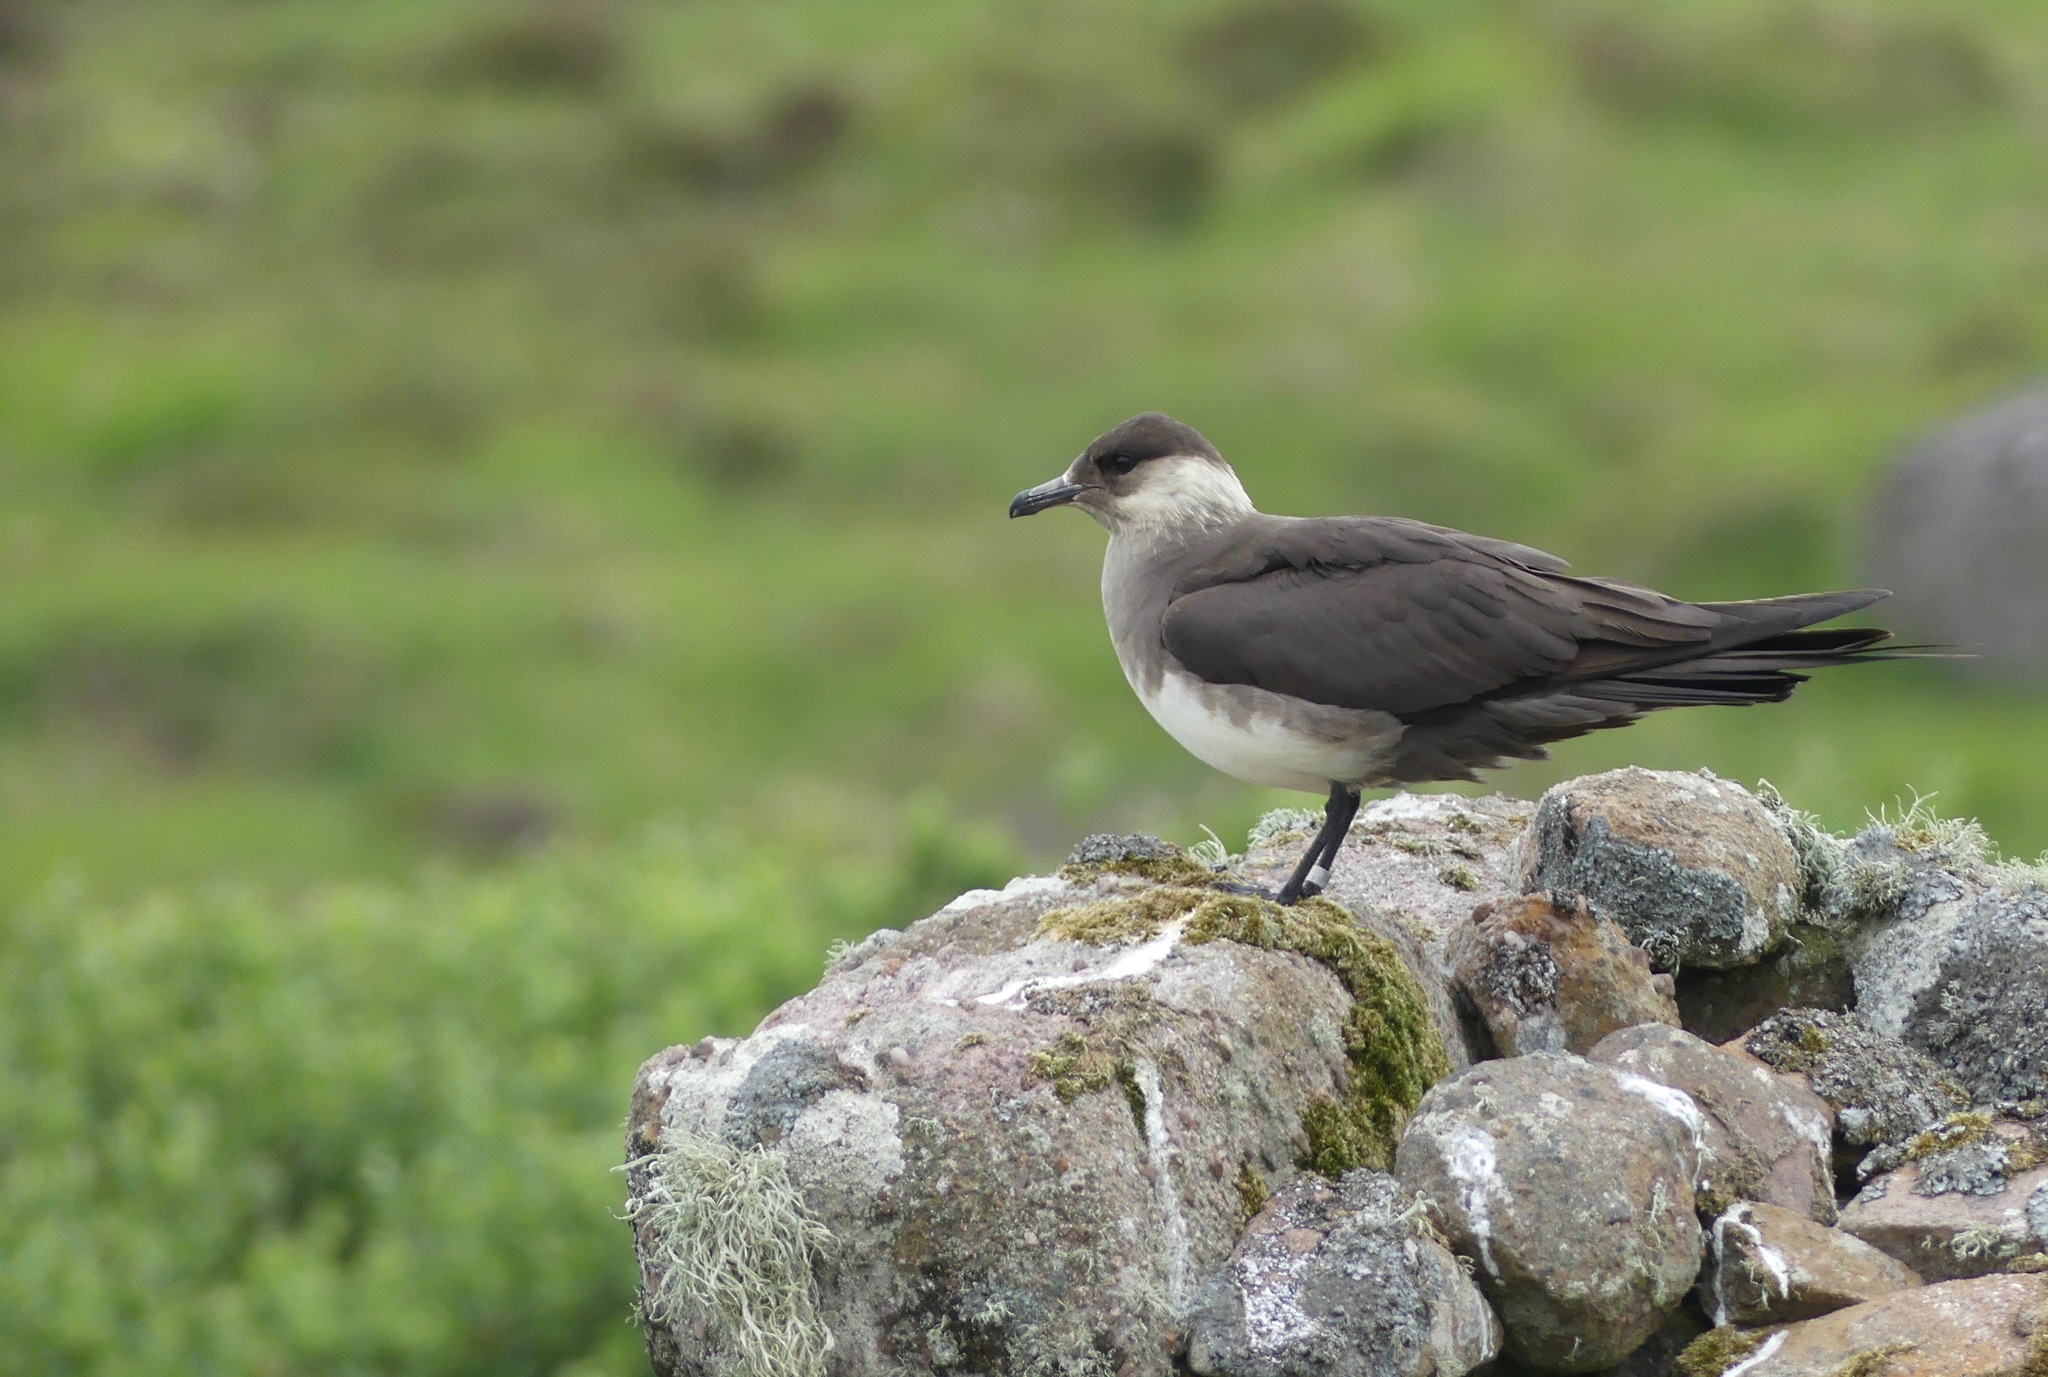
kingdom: Animalia
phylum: Chordata
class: Aves
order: Charadriiformes
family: Stercorariidae
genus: Stercorarius
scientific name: Stercorarius parasiticus
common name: Parasitic jaeger
